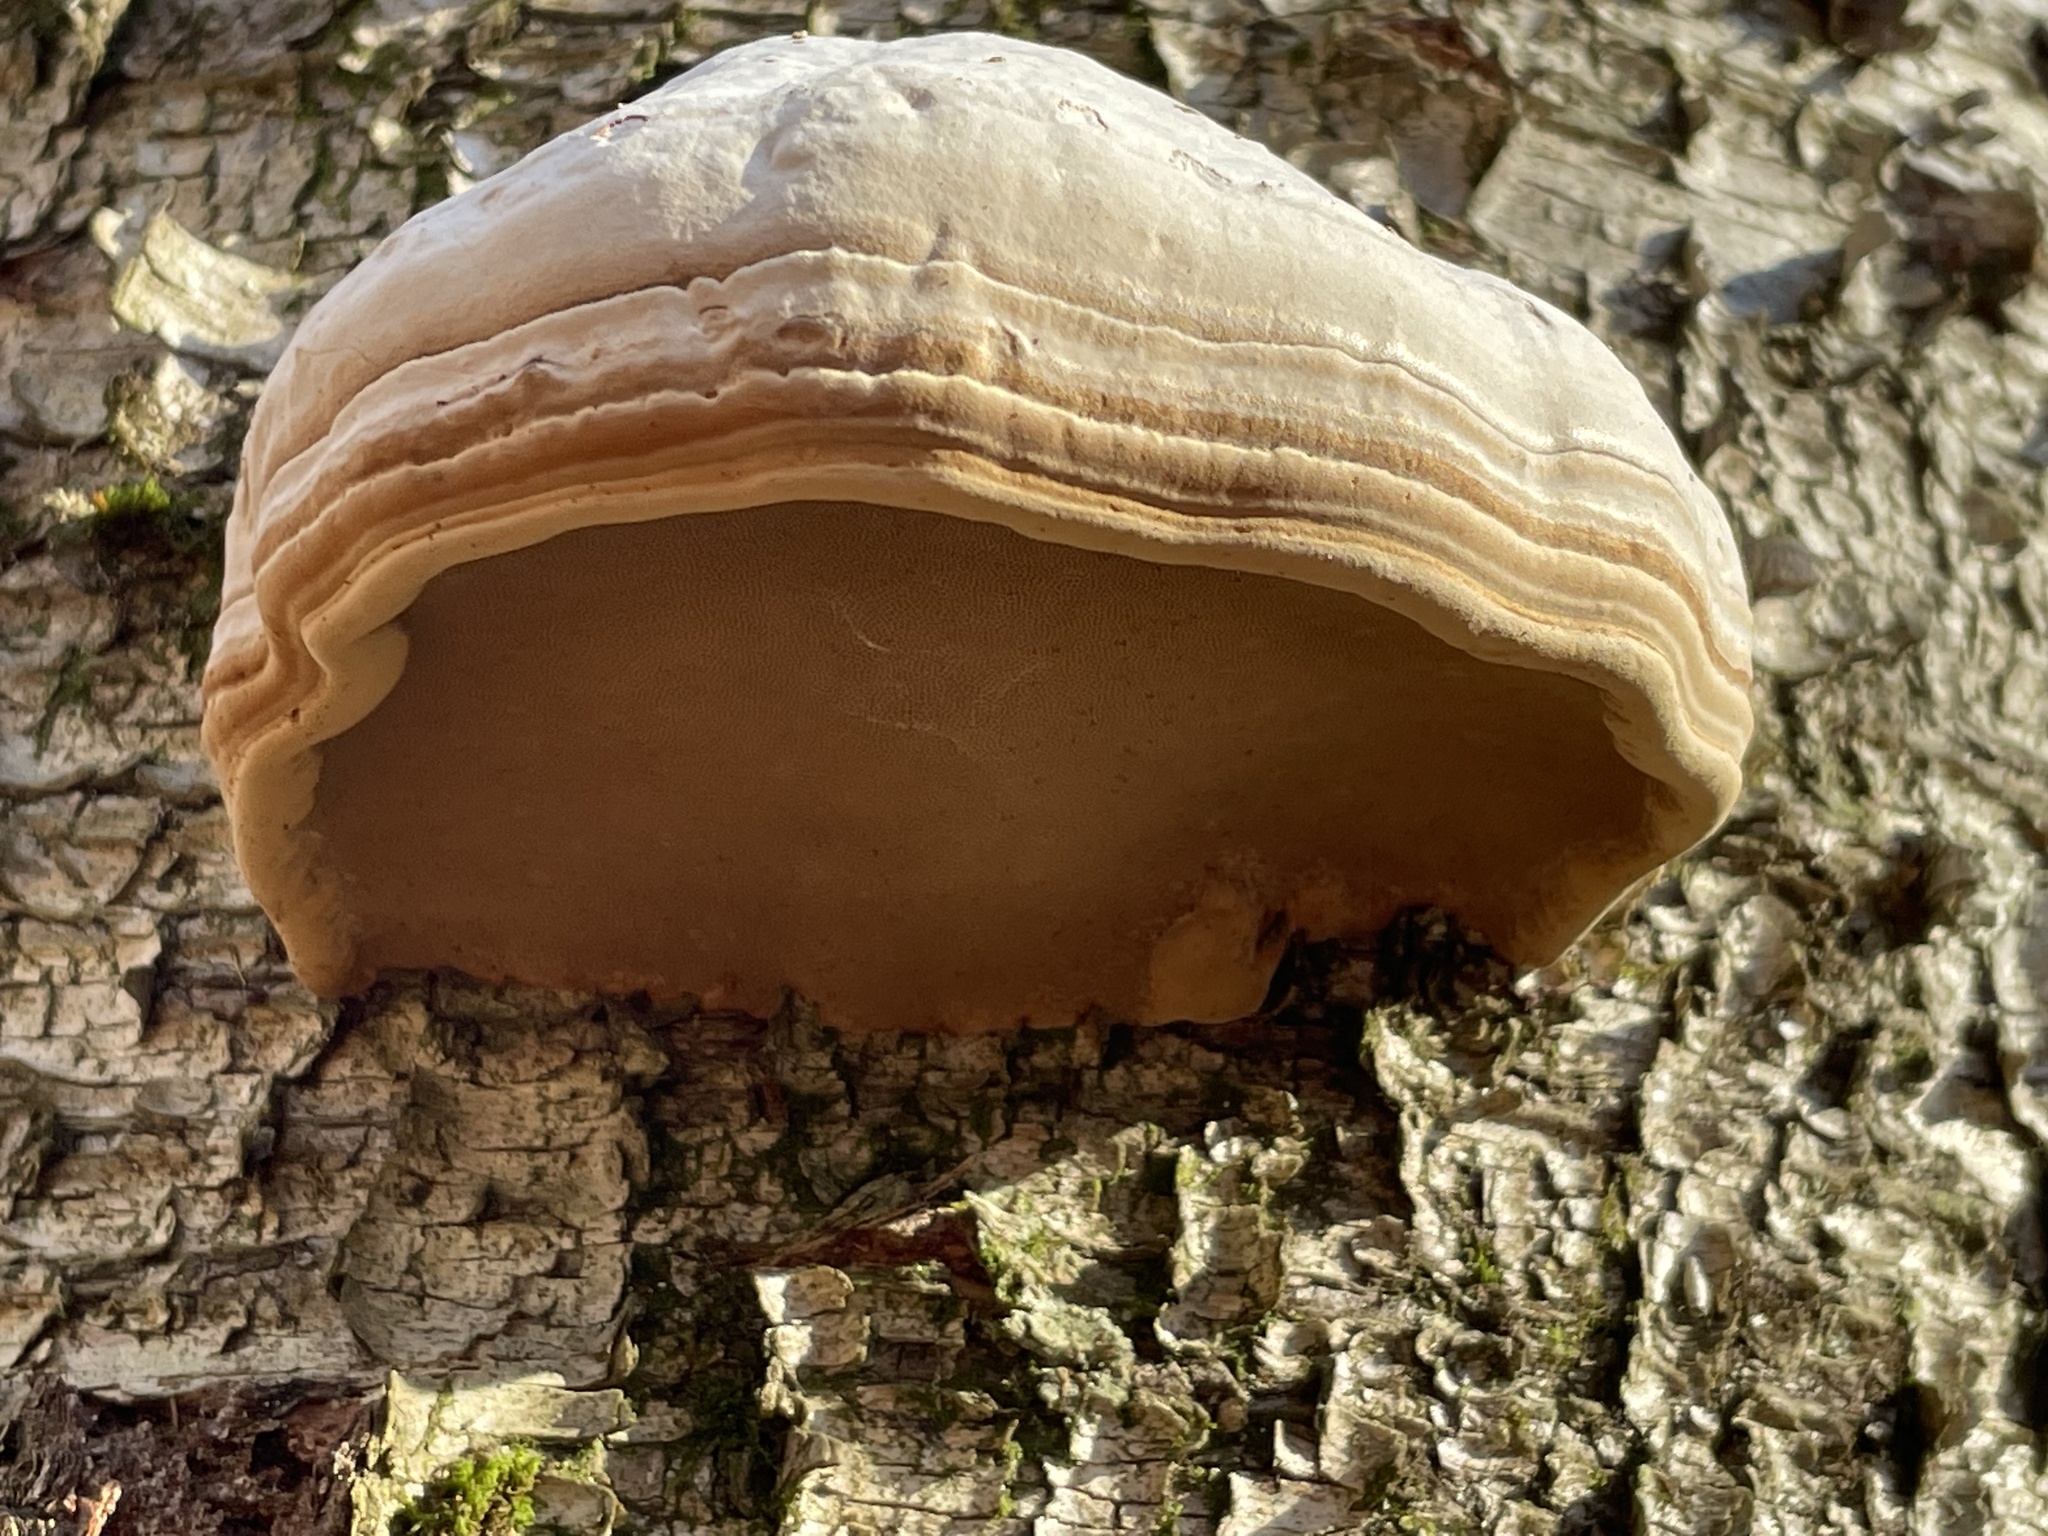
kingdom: Fungi
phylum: Basidiomycota
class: Agaricomycetes
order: Polyporales
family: Polyporaceae
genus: Fomes
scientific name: Fomes fomentarius
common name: Hoof fungus
